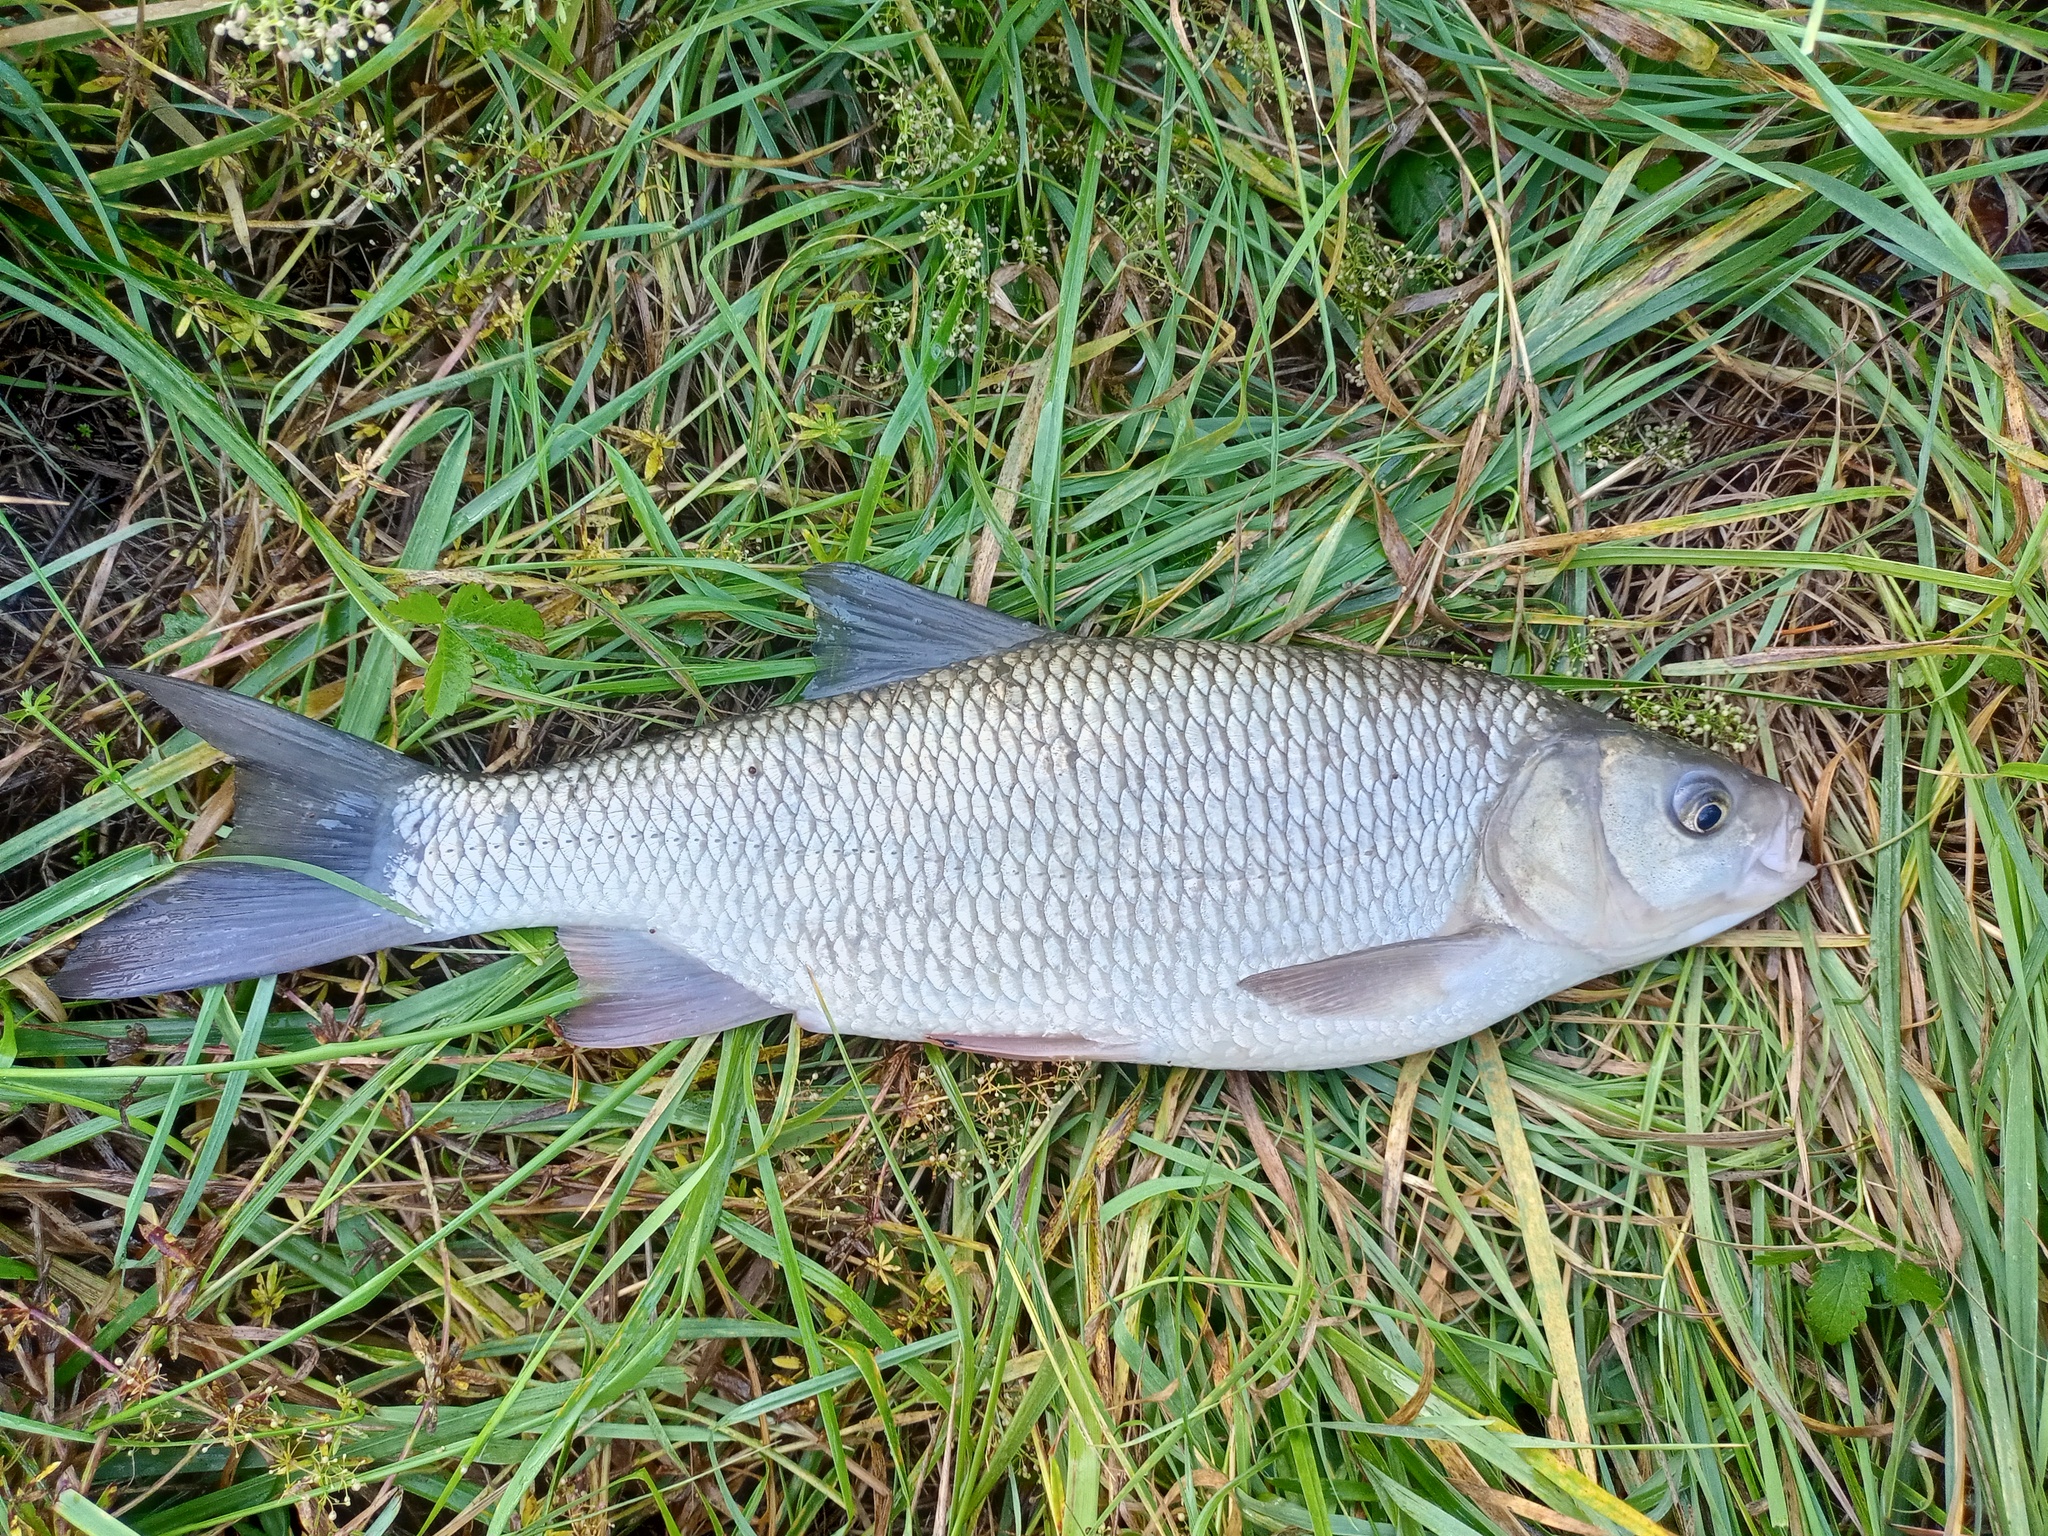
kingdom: Animalia
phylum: Chordata
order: Cypriniformes
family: Cyprinidae
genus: Leuciscus
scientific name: Leuciscus idus
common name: Ide
